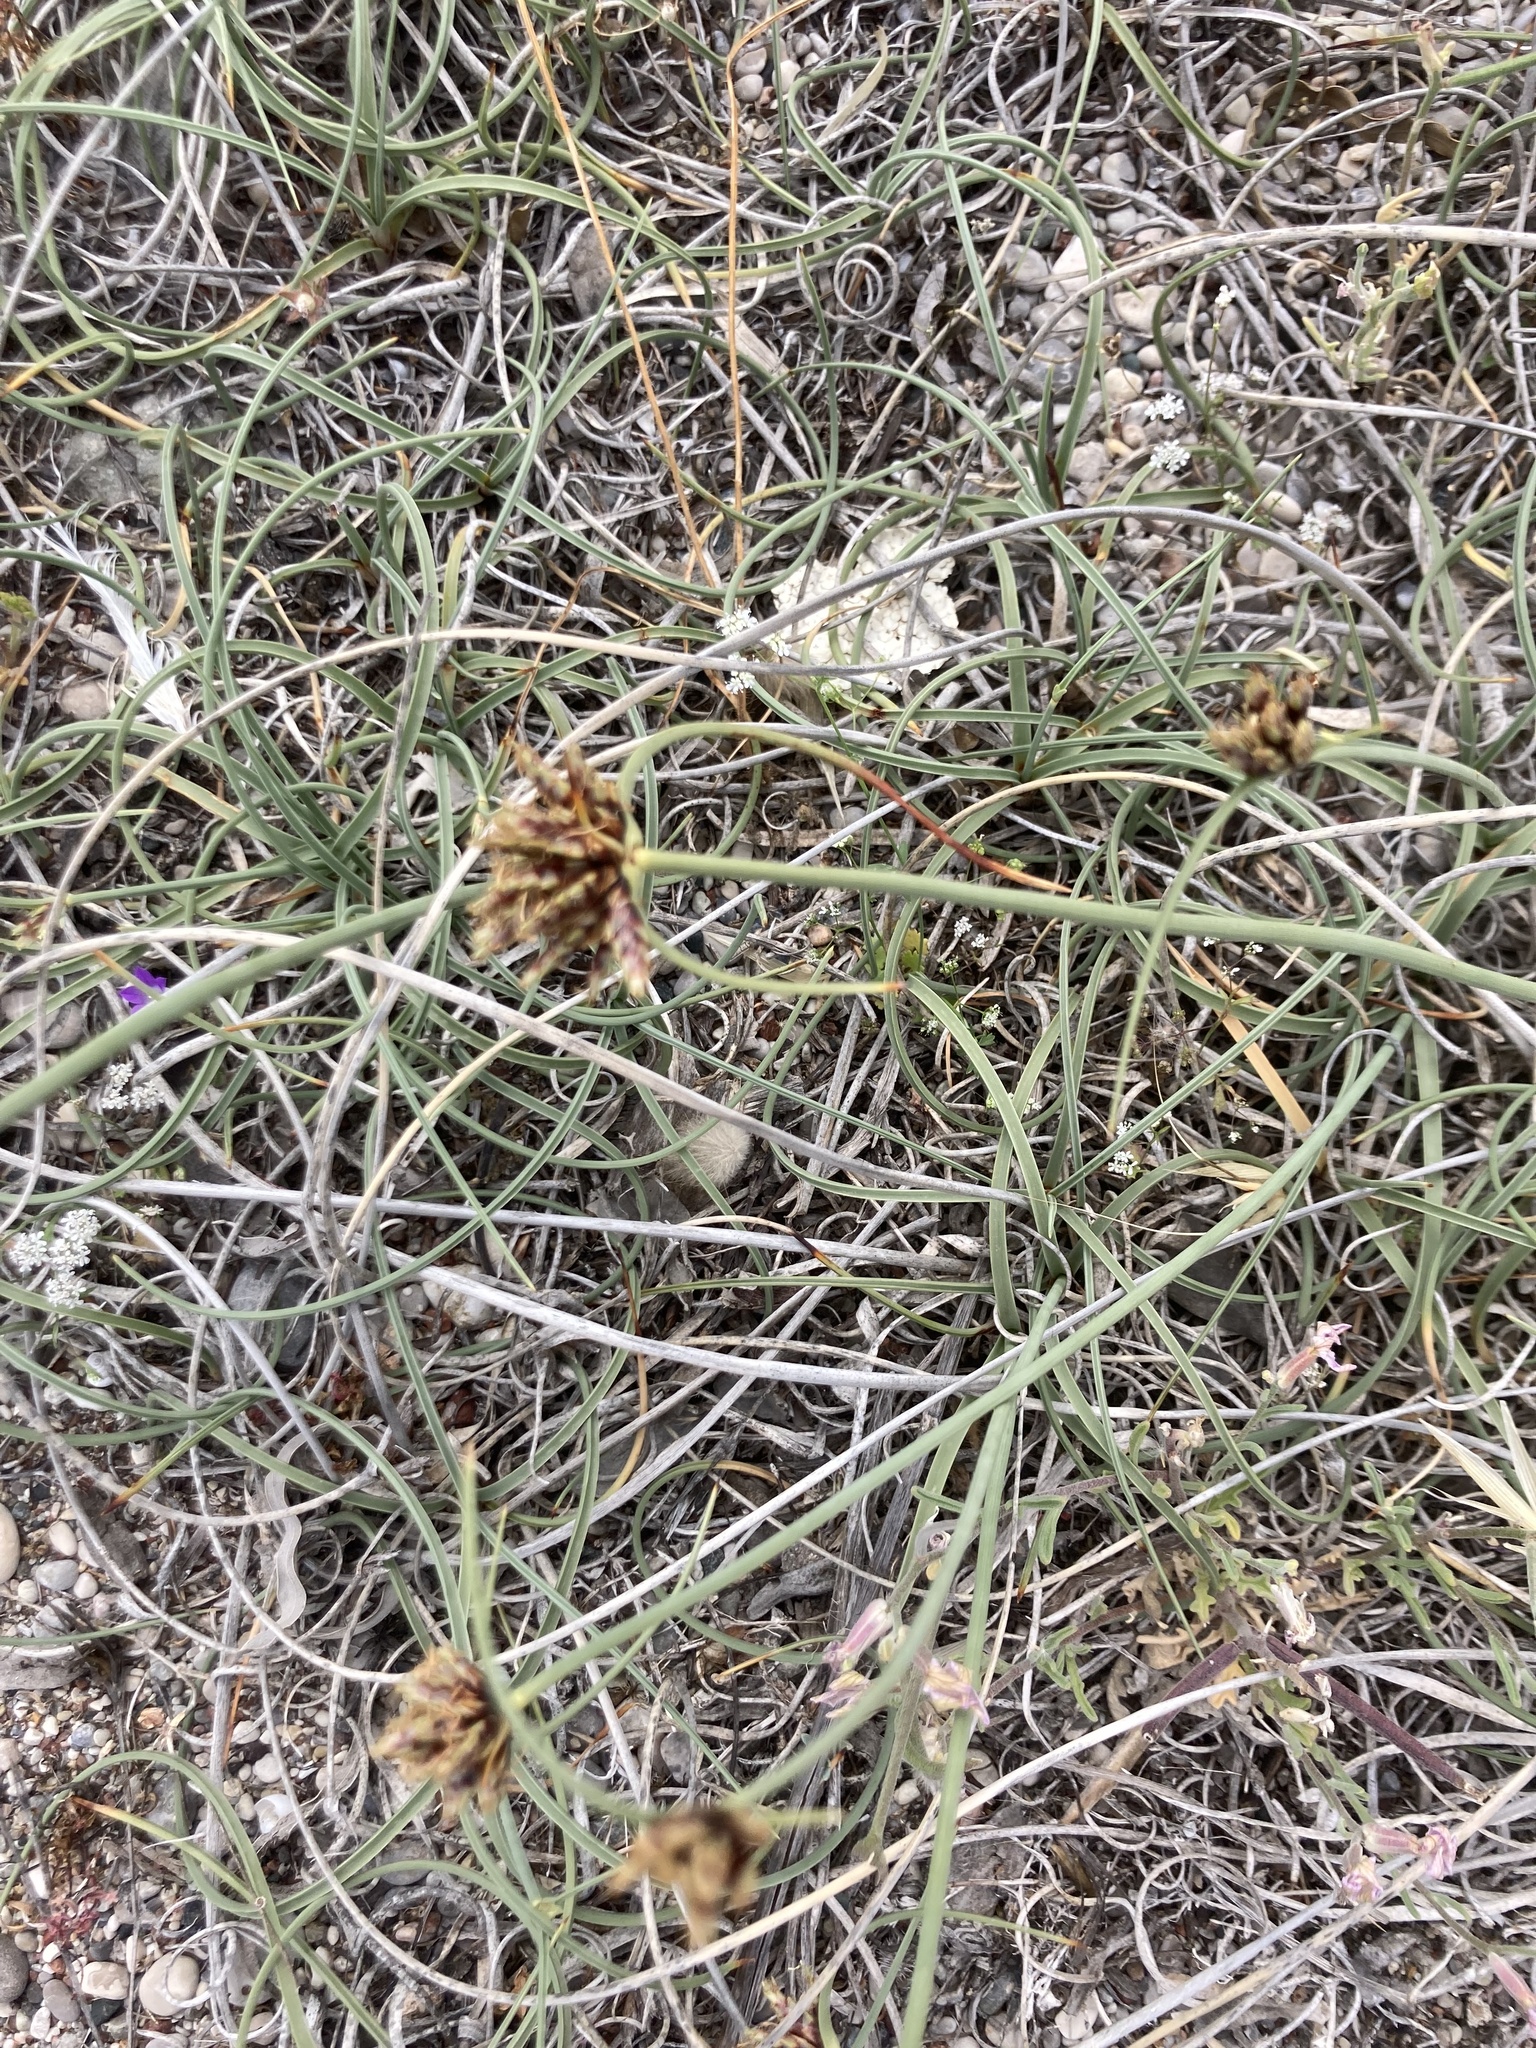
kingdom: Plantae
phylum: Tracheophyta
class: Liliopsida
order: Poales
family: Cyperaceae
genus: Cyperus
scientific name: Cyperus capitatus
